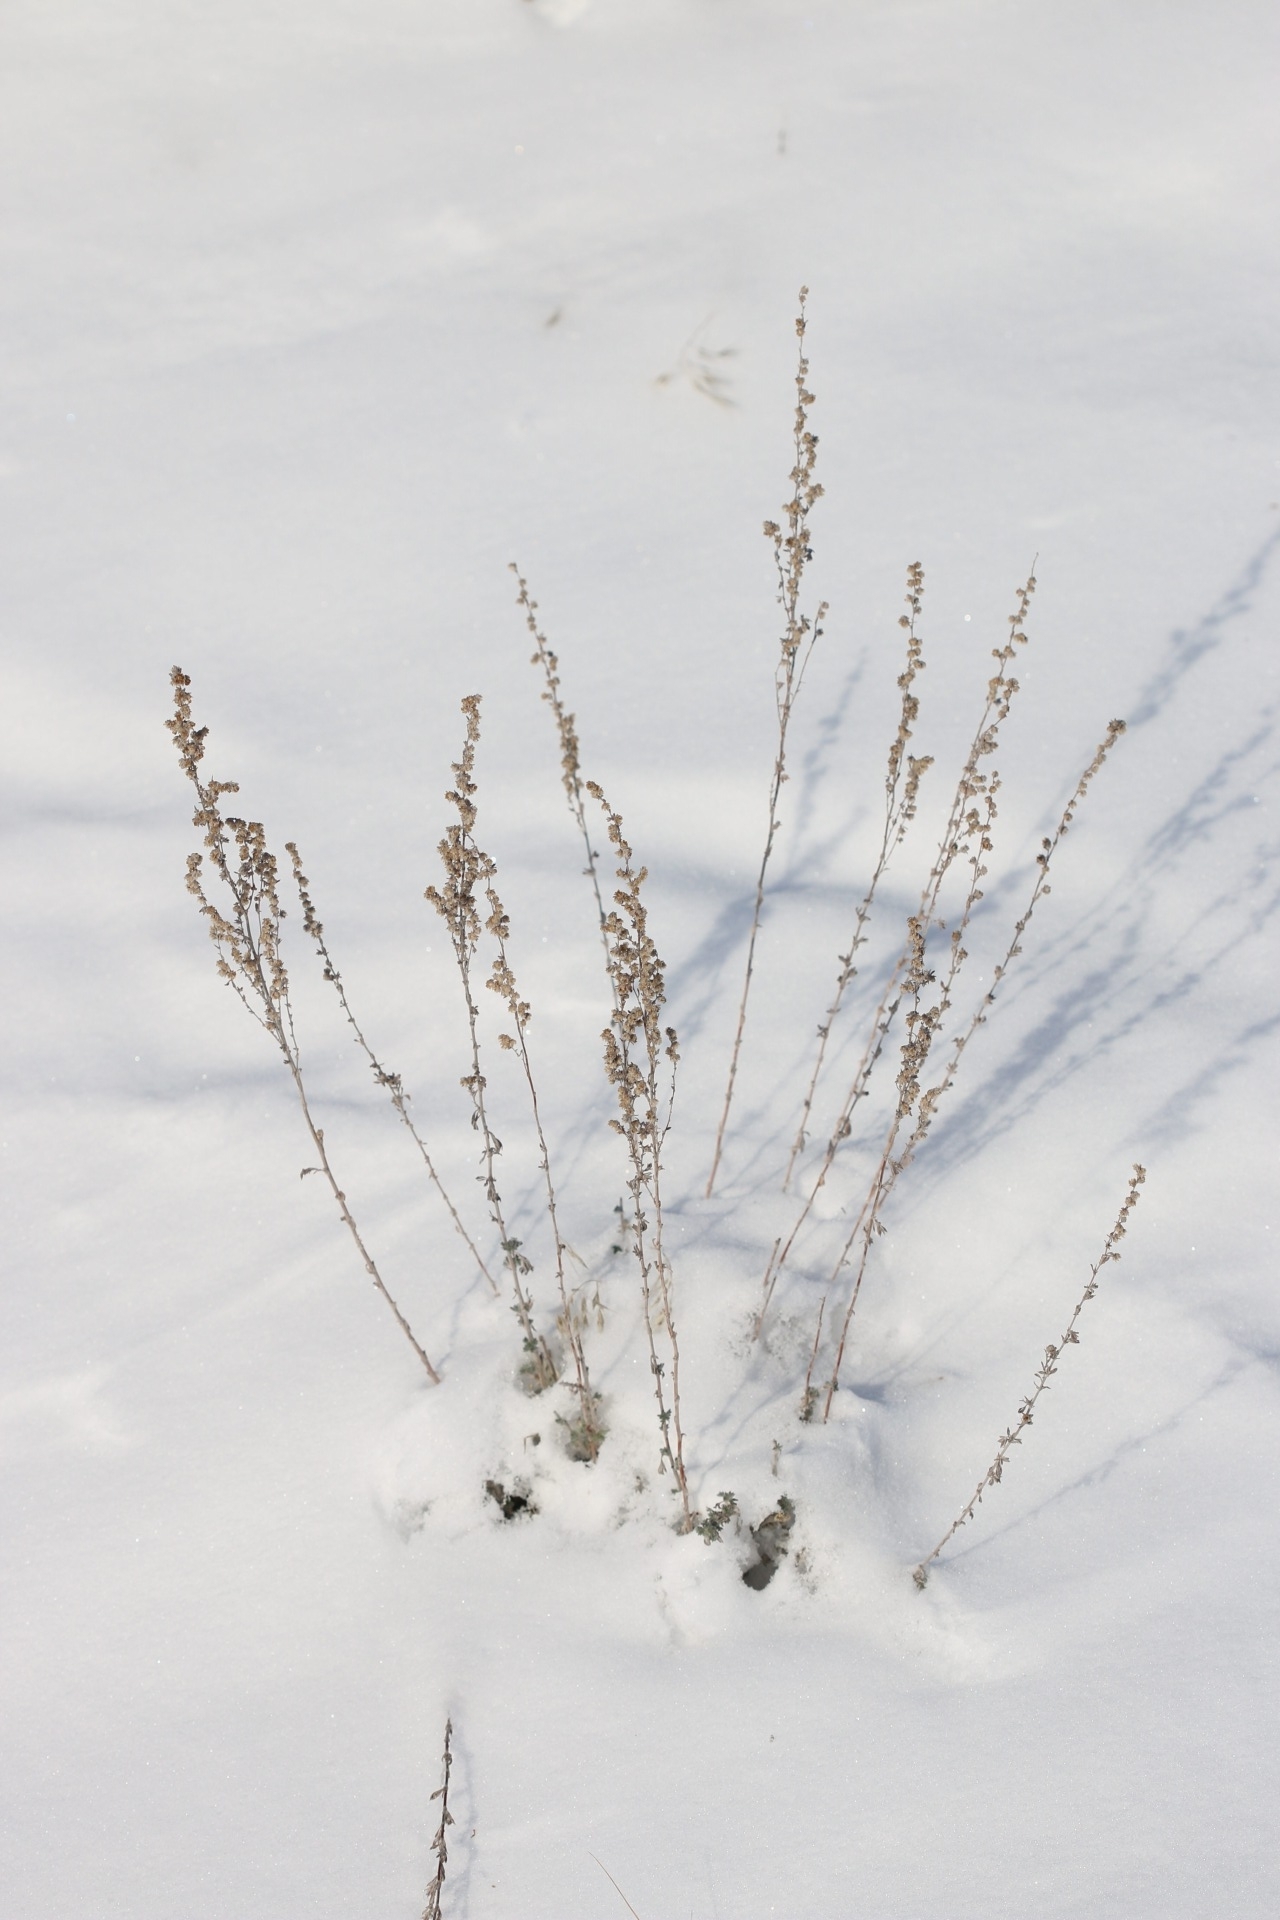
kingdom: Plantae
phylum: Tracheophyta
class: Magnoliopsida
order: Asterales
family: Asteraceae
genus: Artemisia
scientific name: Artemisia frigida
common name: Prairie sagewort
